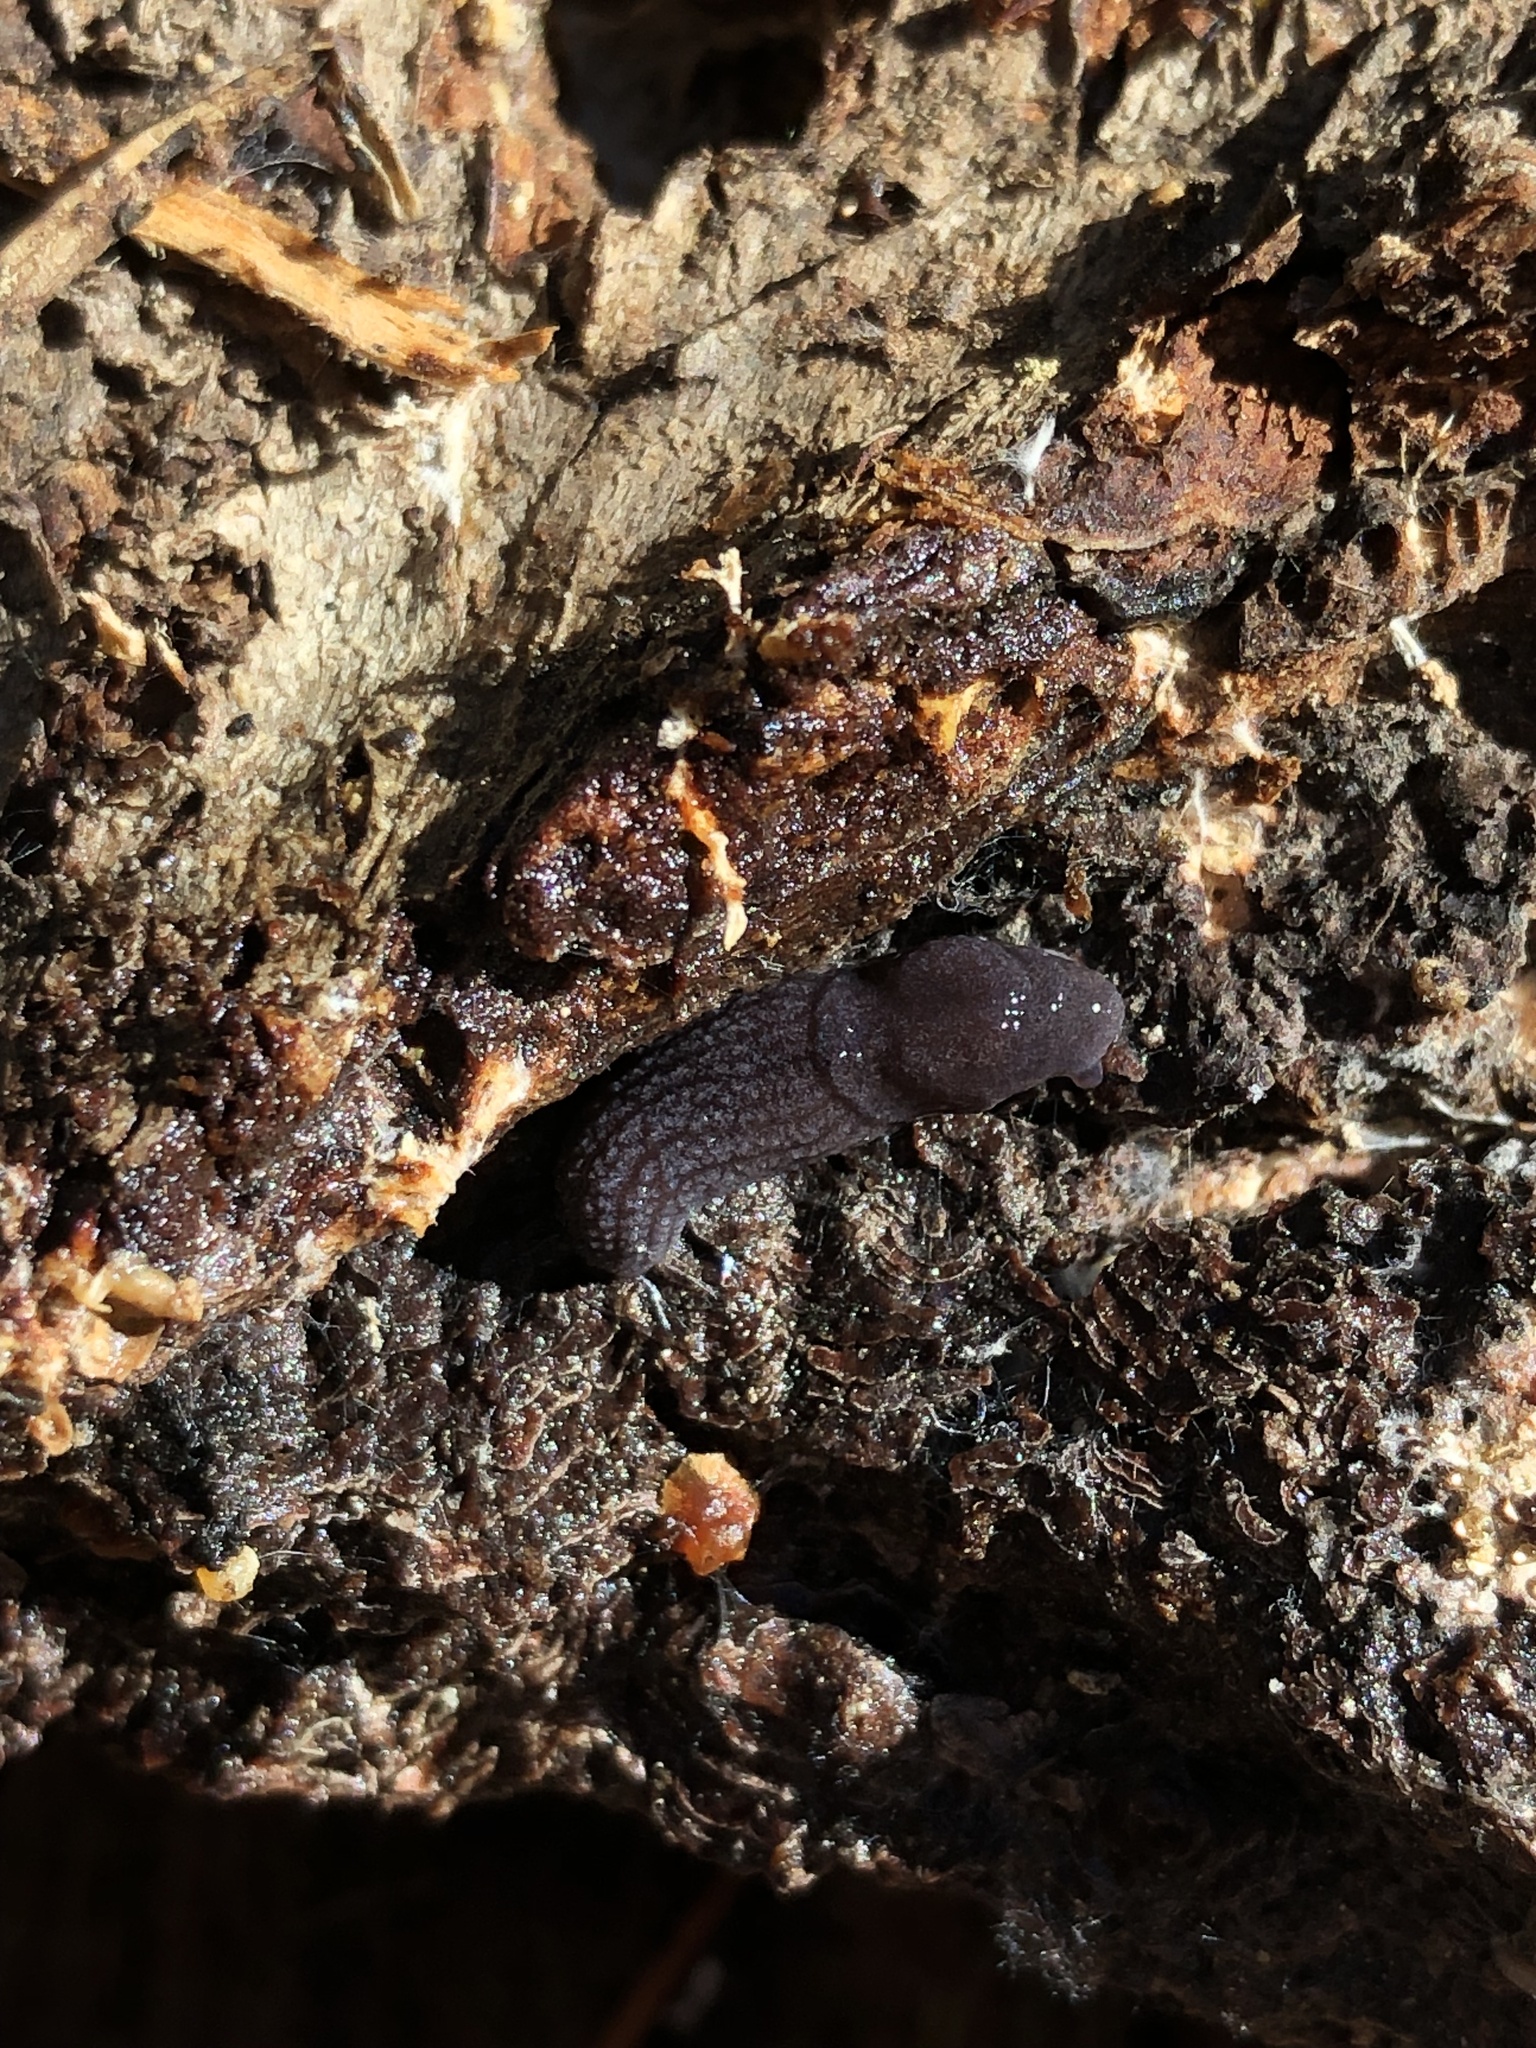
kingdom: Animalia
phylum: Mollusca
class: Gastropoda
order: Stylommatophora
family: Ariolimacidae
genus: Prophysaon
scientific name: Prophysaon coeruleum
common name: Blue-gray taildropper
